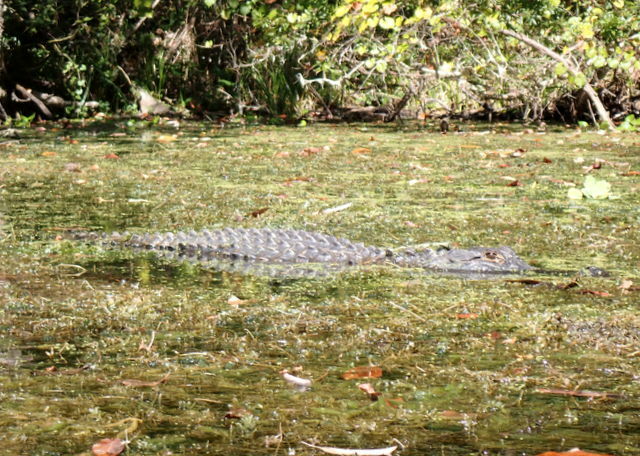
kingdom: Animalia
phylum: Chordata
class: Crocodylia
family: Alligatoridae
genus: Alligator
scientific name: Alligator mississippiensis
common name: American alligator
